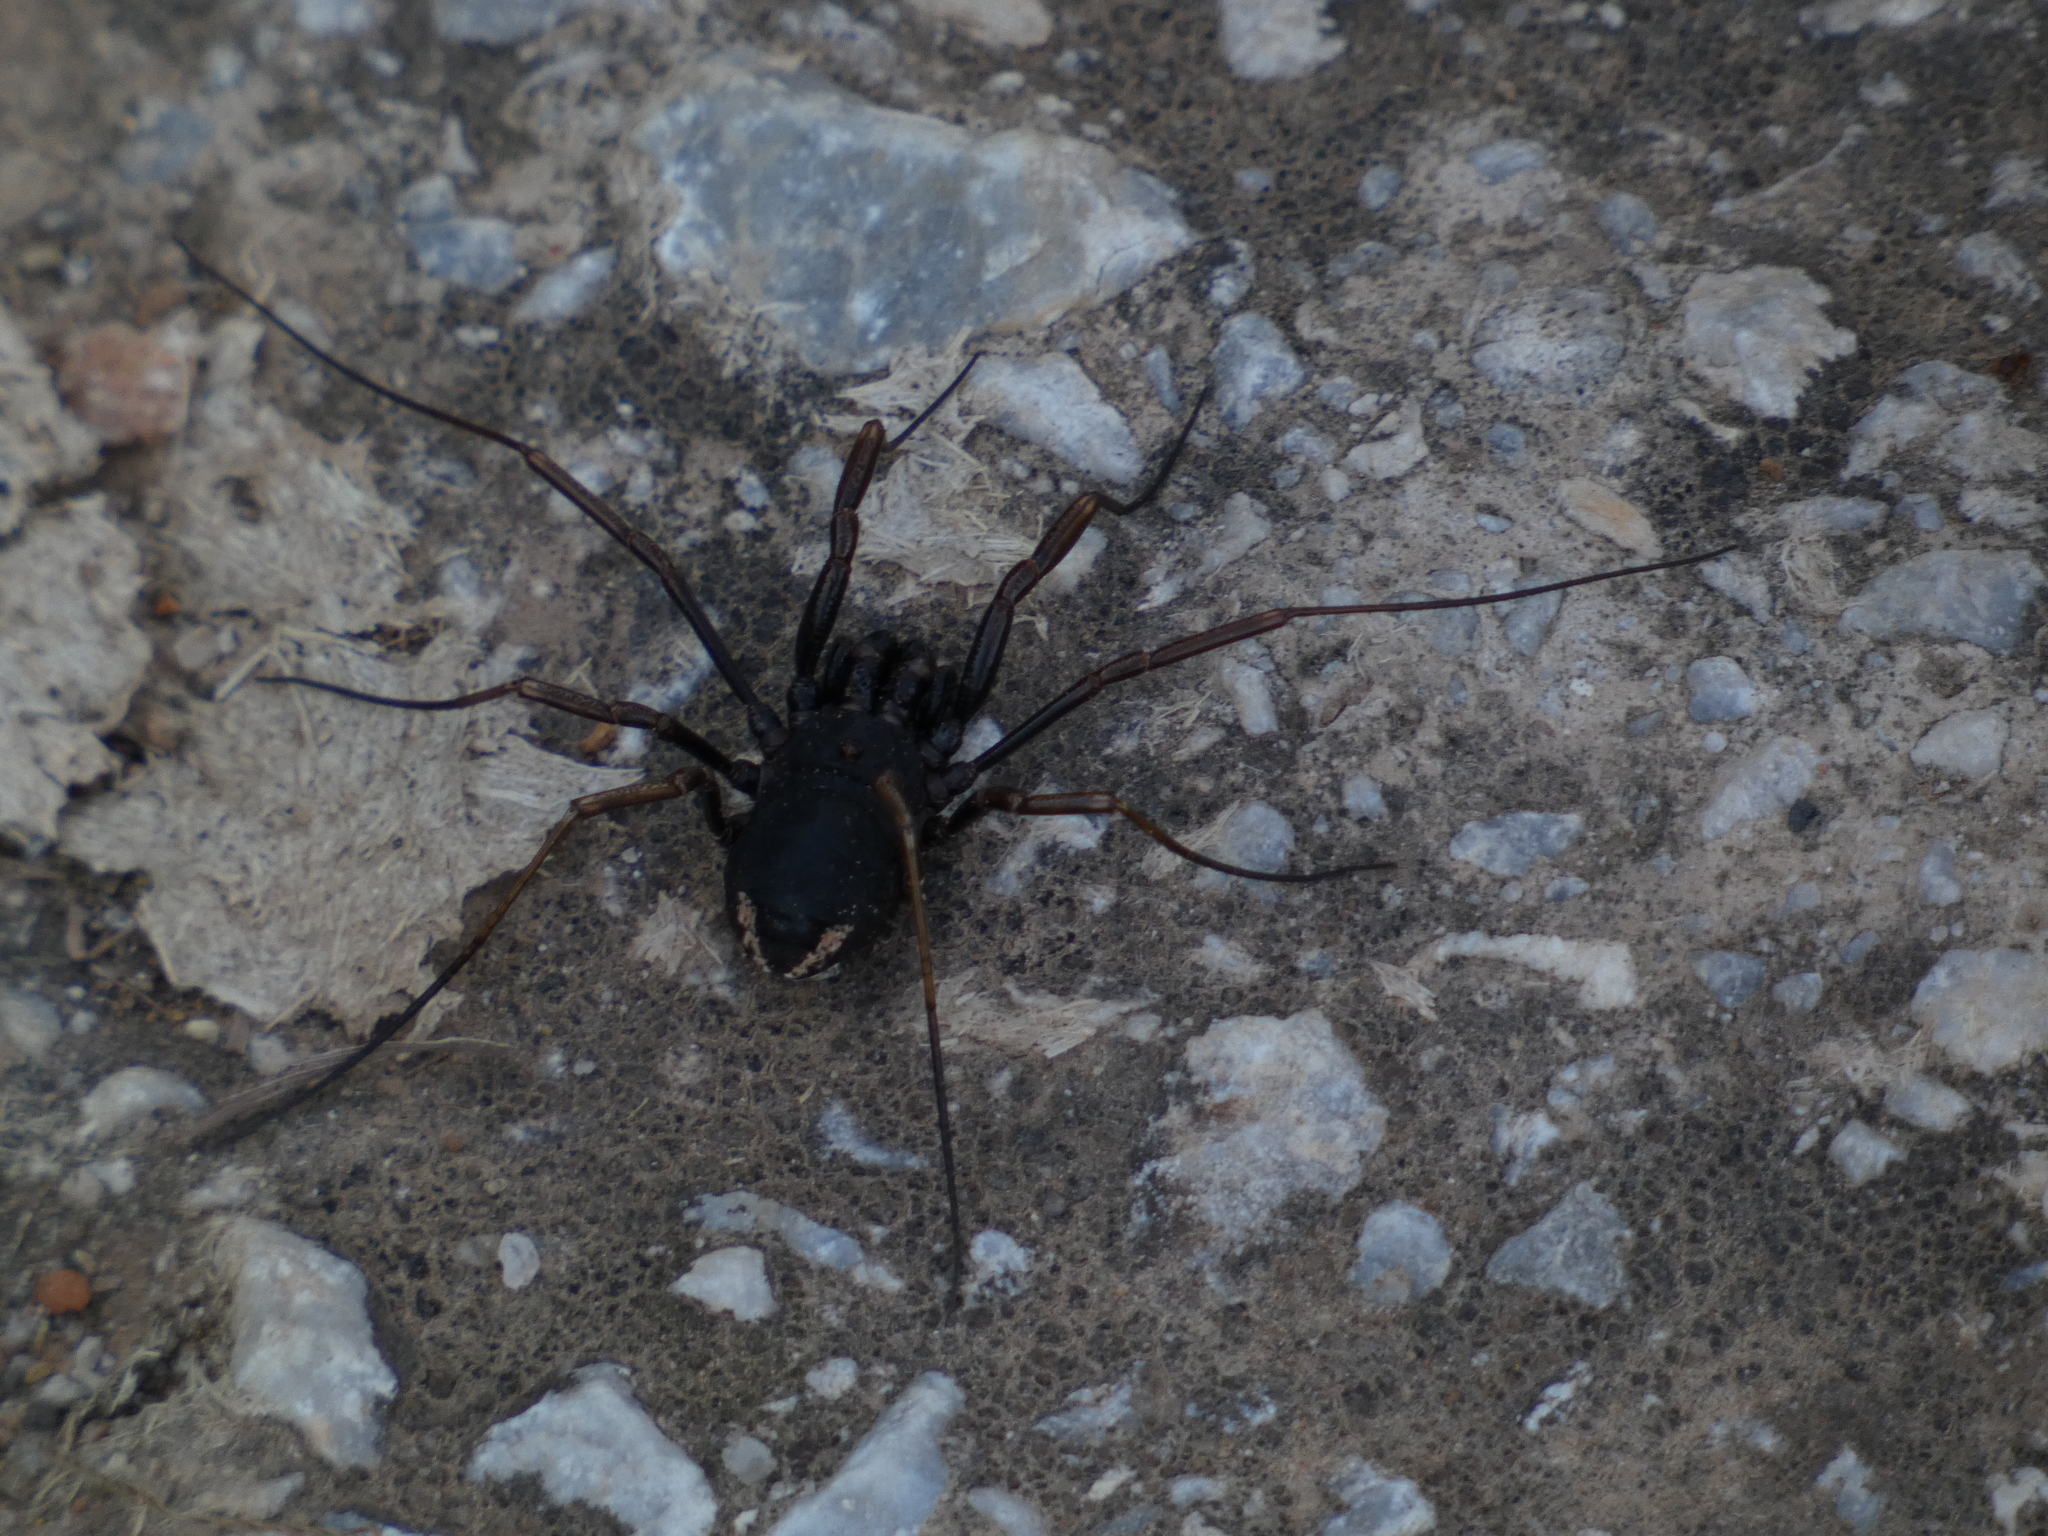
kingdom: Animalia
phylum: Arthropoda
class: Arachnida
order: Opiliones
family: Phalangiidae
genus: Zachaeus
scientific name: Zachaeus crista
